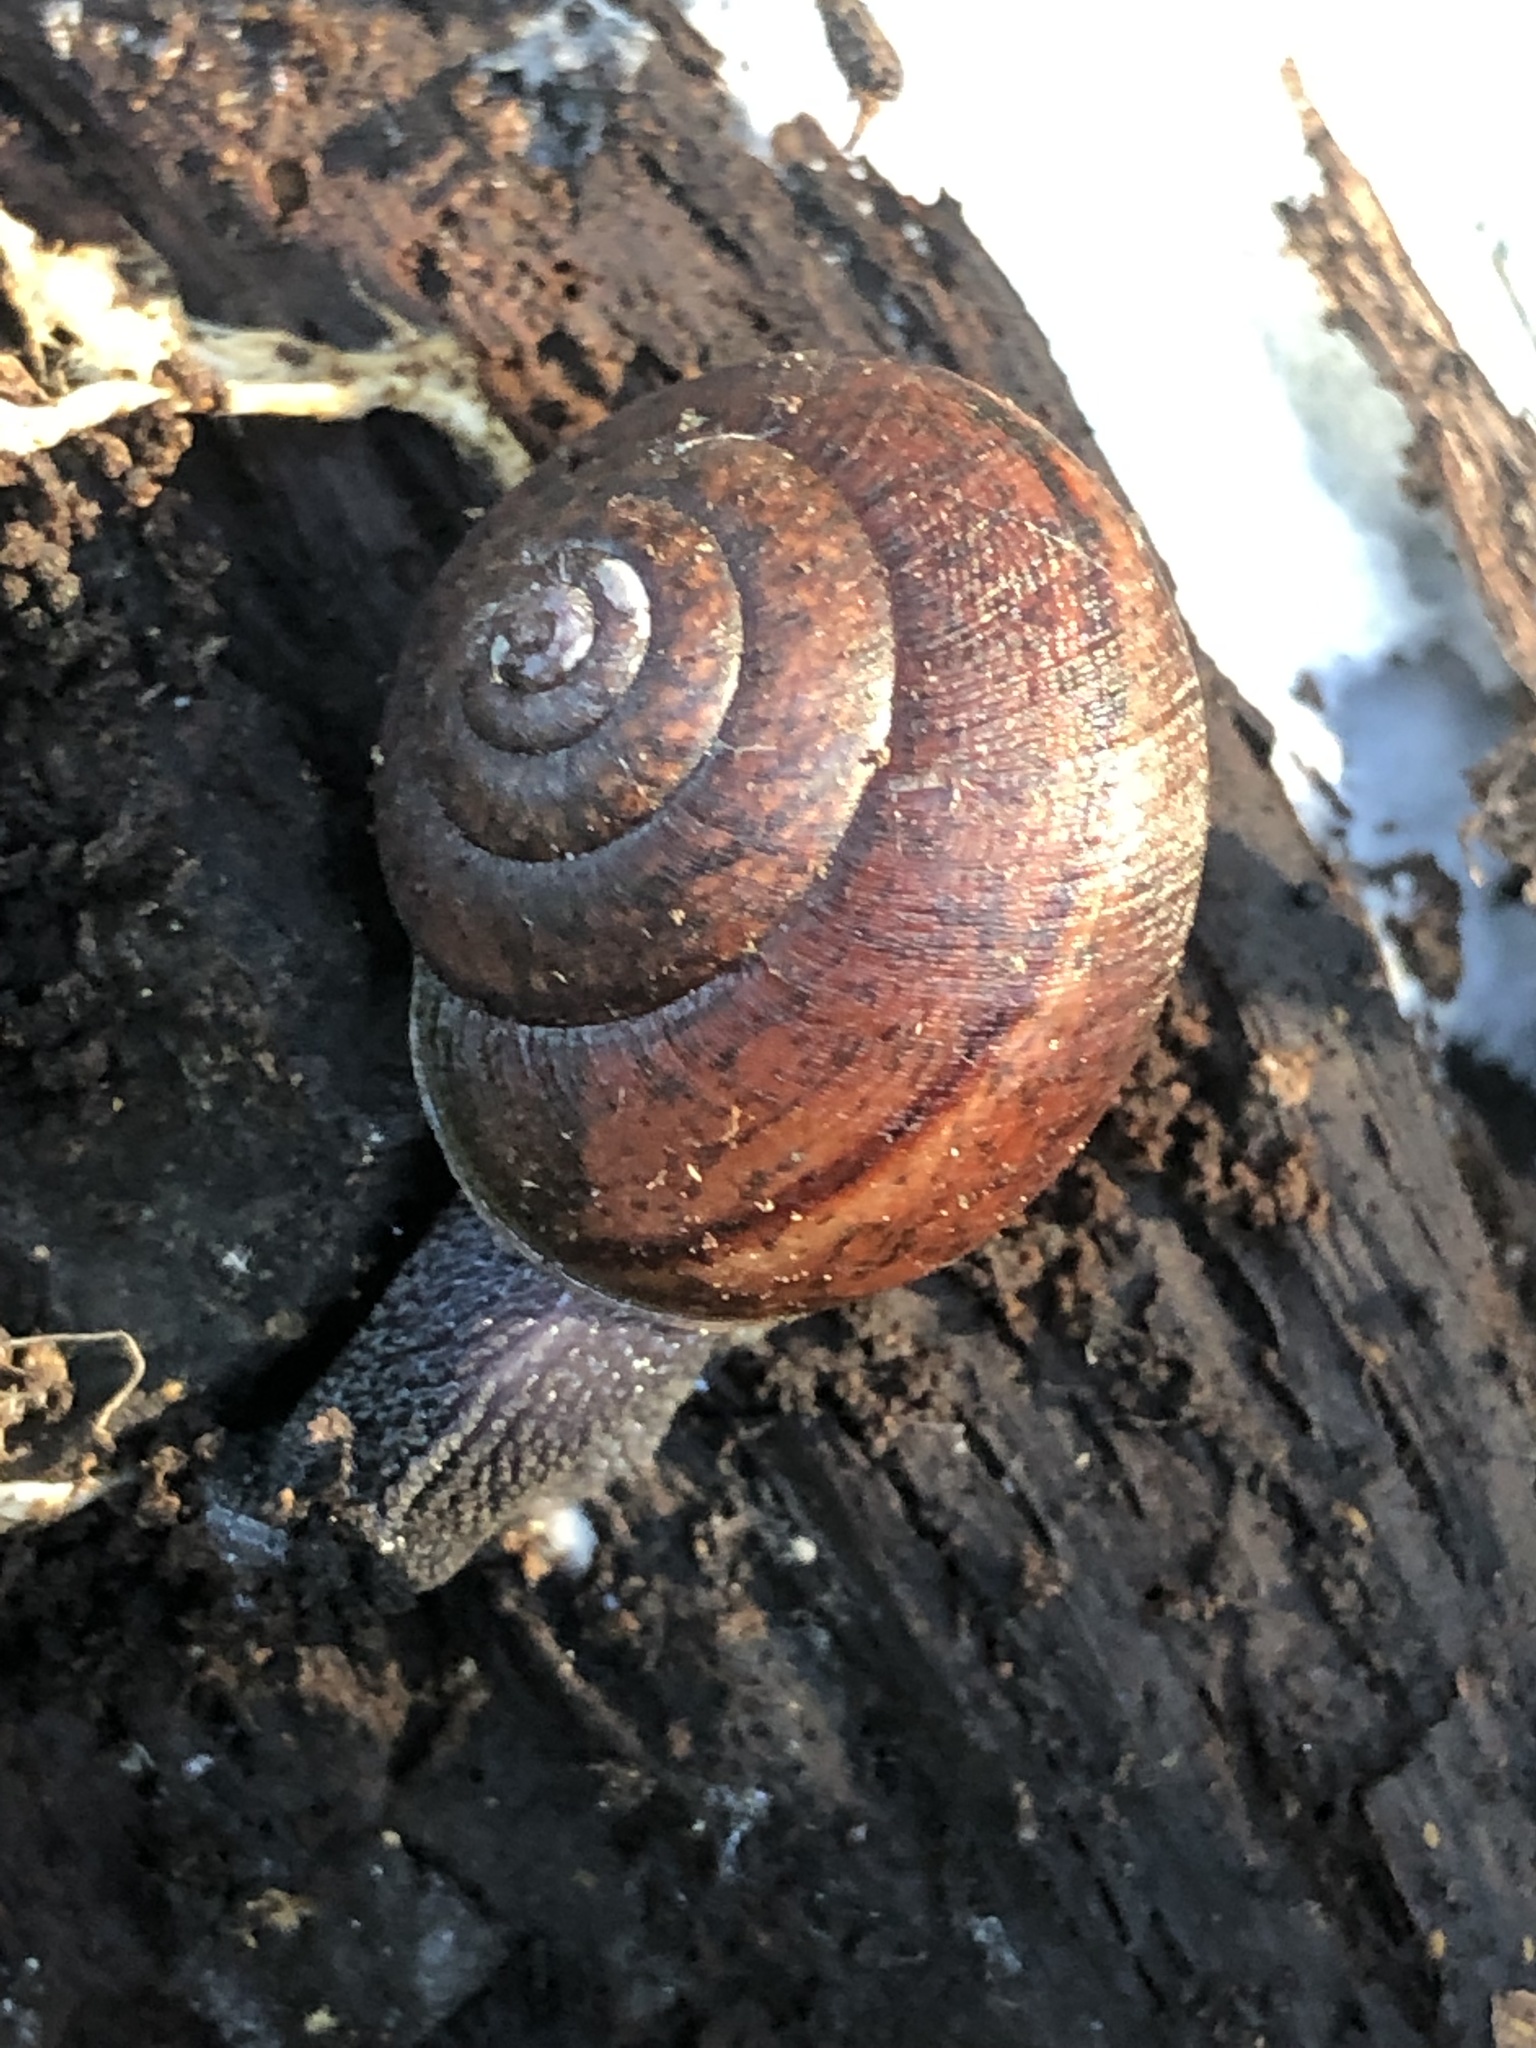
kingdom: Animalia
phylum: Mollusca
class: Gastropoda
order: Stylommatophora
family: Xanthonychidae
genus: Helminthoglypta
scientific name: Helminthoglypta nickliniana
